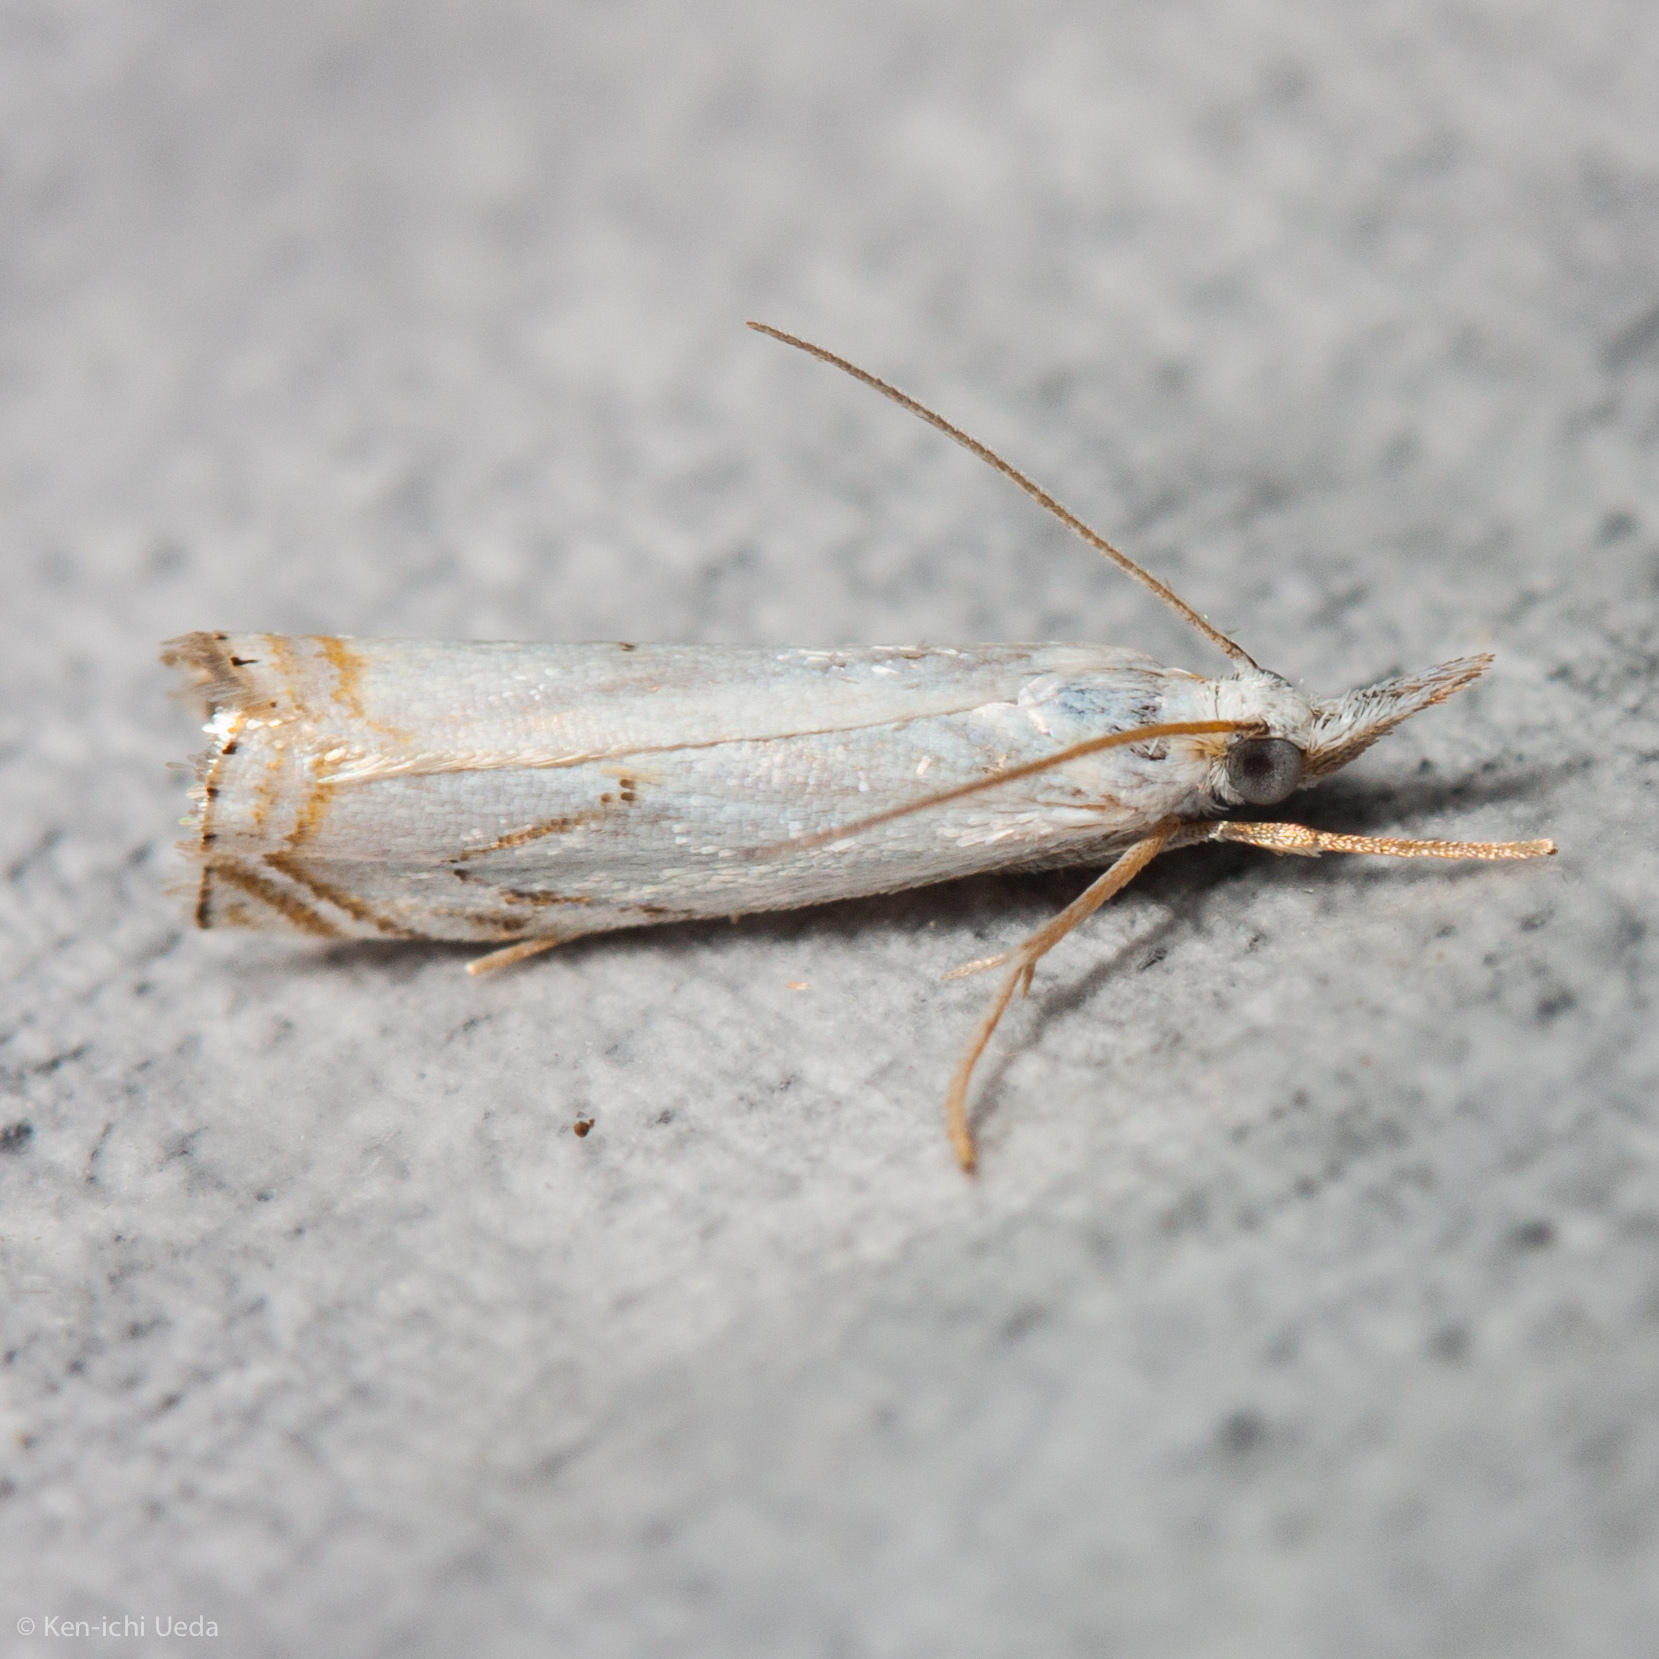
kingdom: Animalia
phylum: Arthropoda
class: Insecta
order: Lepidoptera
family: Crambidae
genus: Crambus
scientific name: Crambus albellus
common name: Small white grass-veneer
